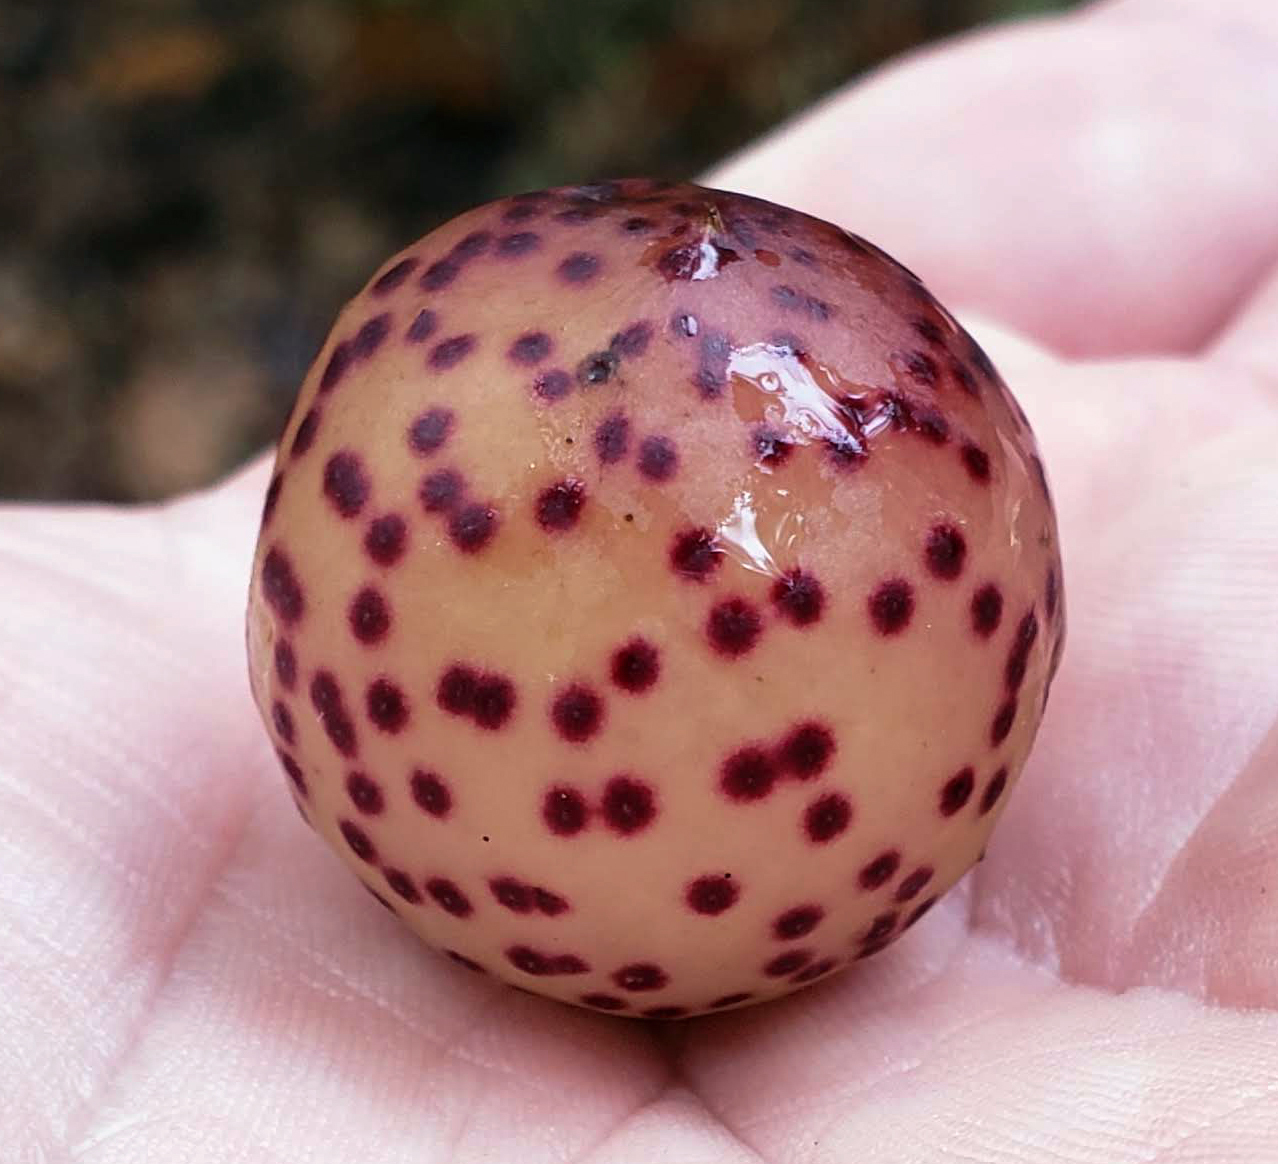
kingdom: Animalia
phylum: Arthropoda
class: Insecta
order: Hymenoptera
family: Cynipidae
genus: Amphibolips
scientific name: Amphibolips
